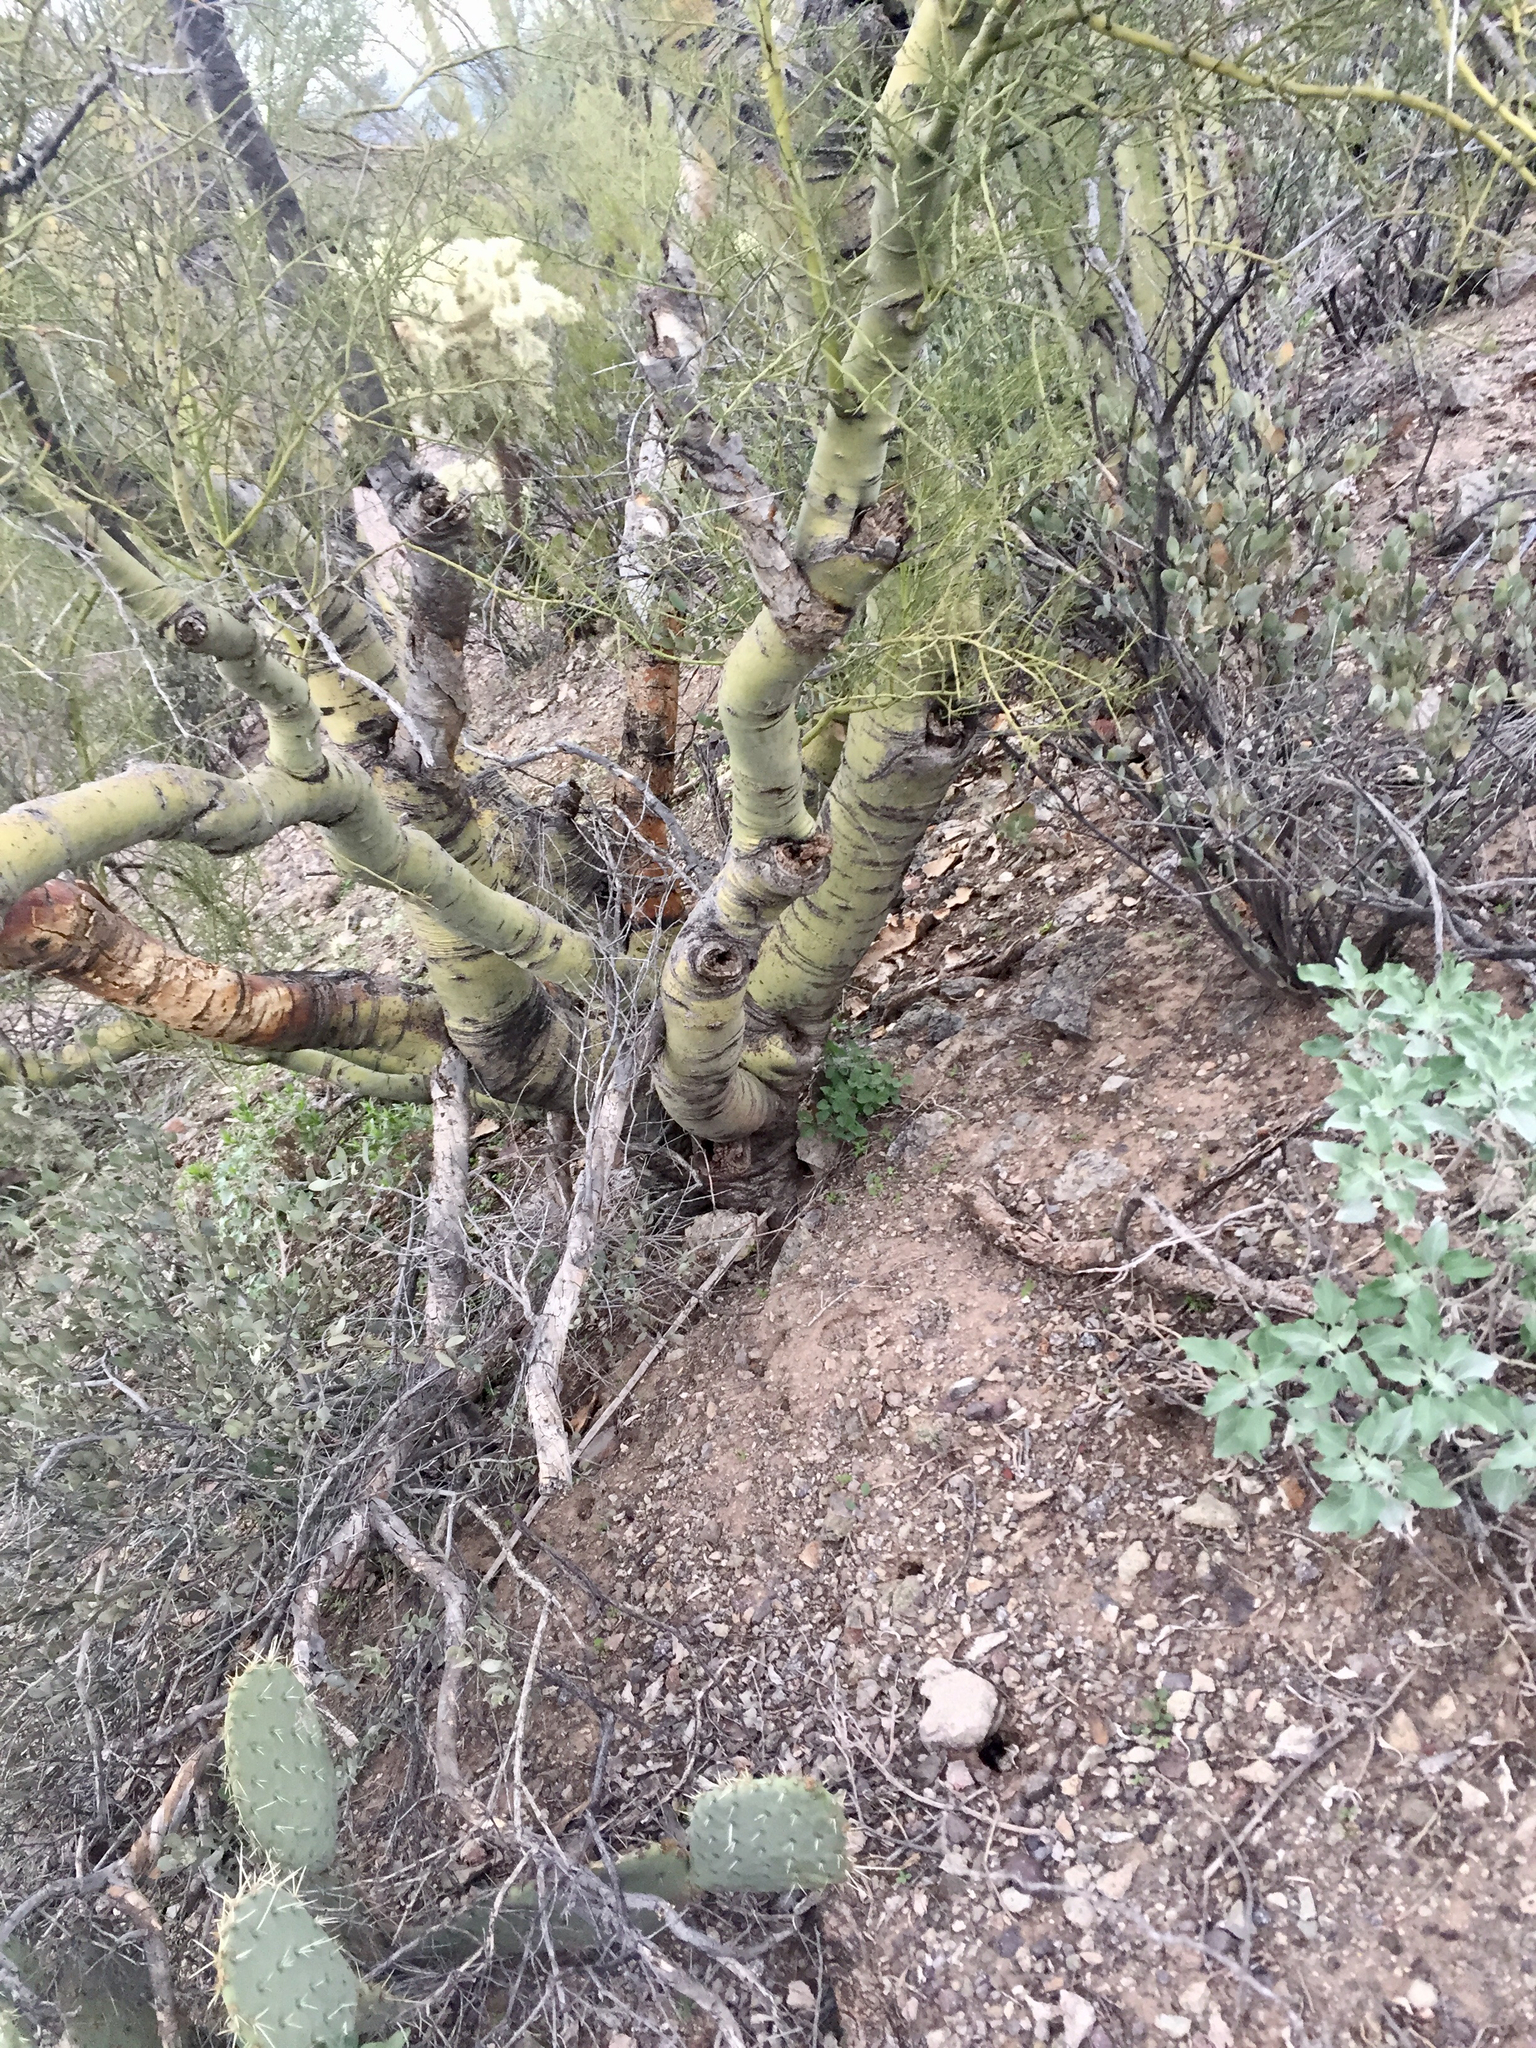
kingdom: Plantae
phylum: Tracheophyta
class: Magnoliopsida
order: Fabales
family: Fabaceae
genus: Parkinsonia
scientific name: Parkinsonia microphylla
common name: Yellow paloverde
